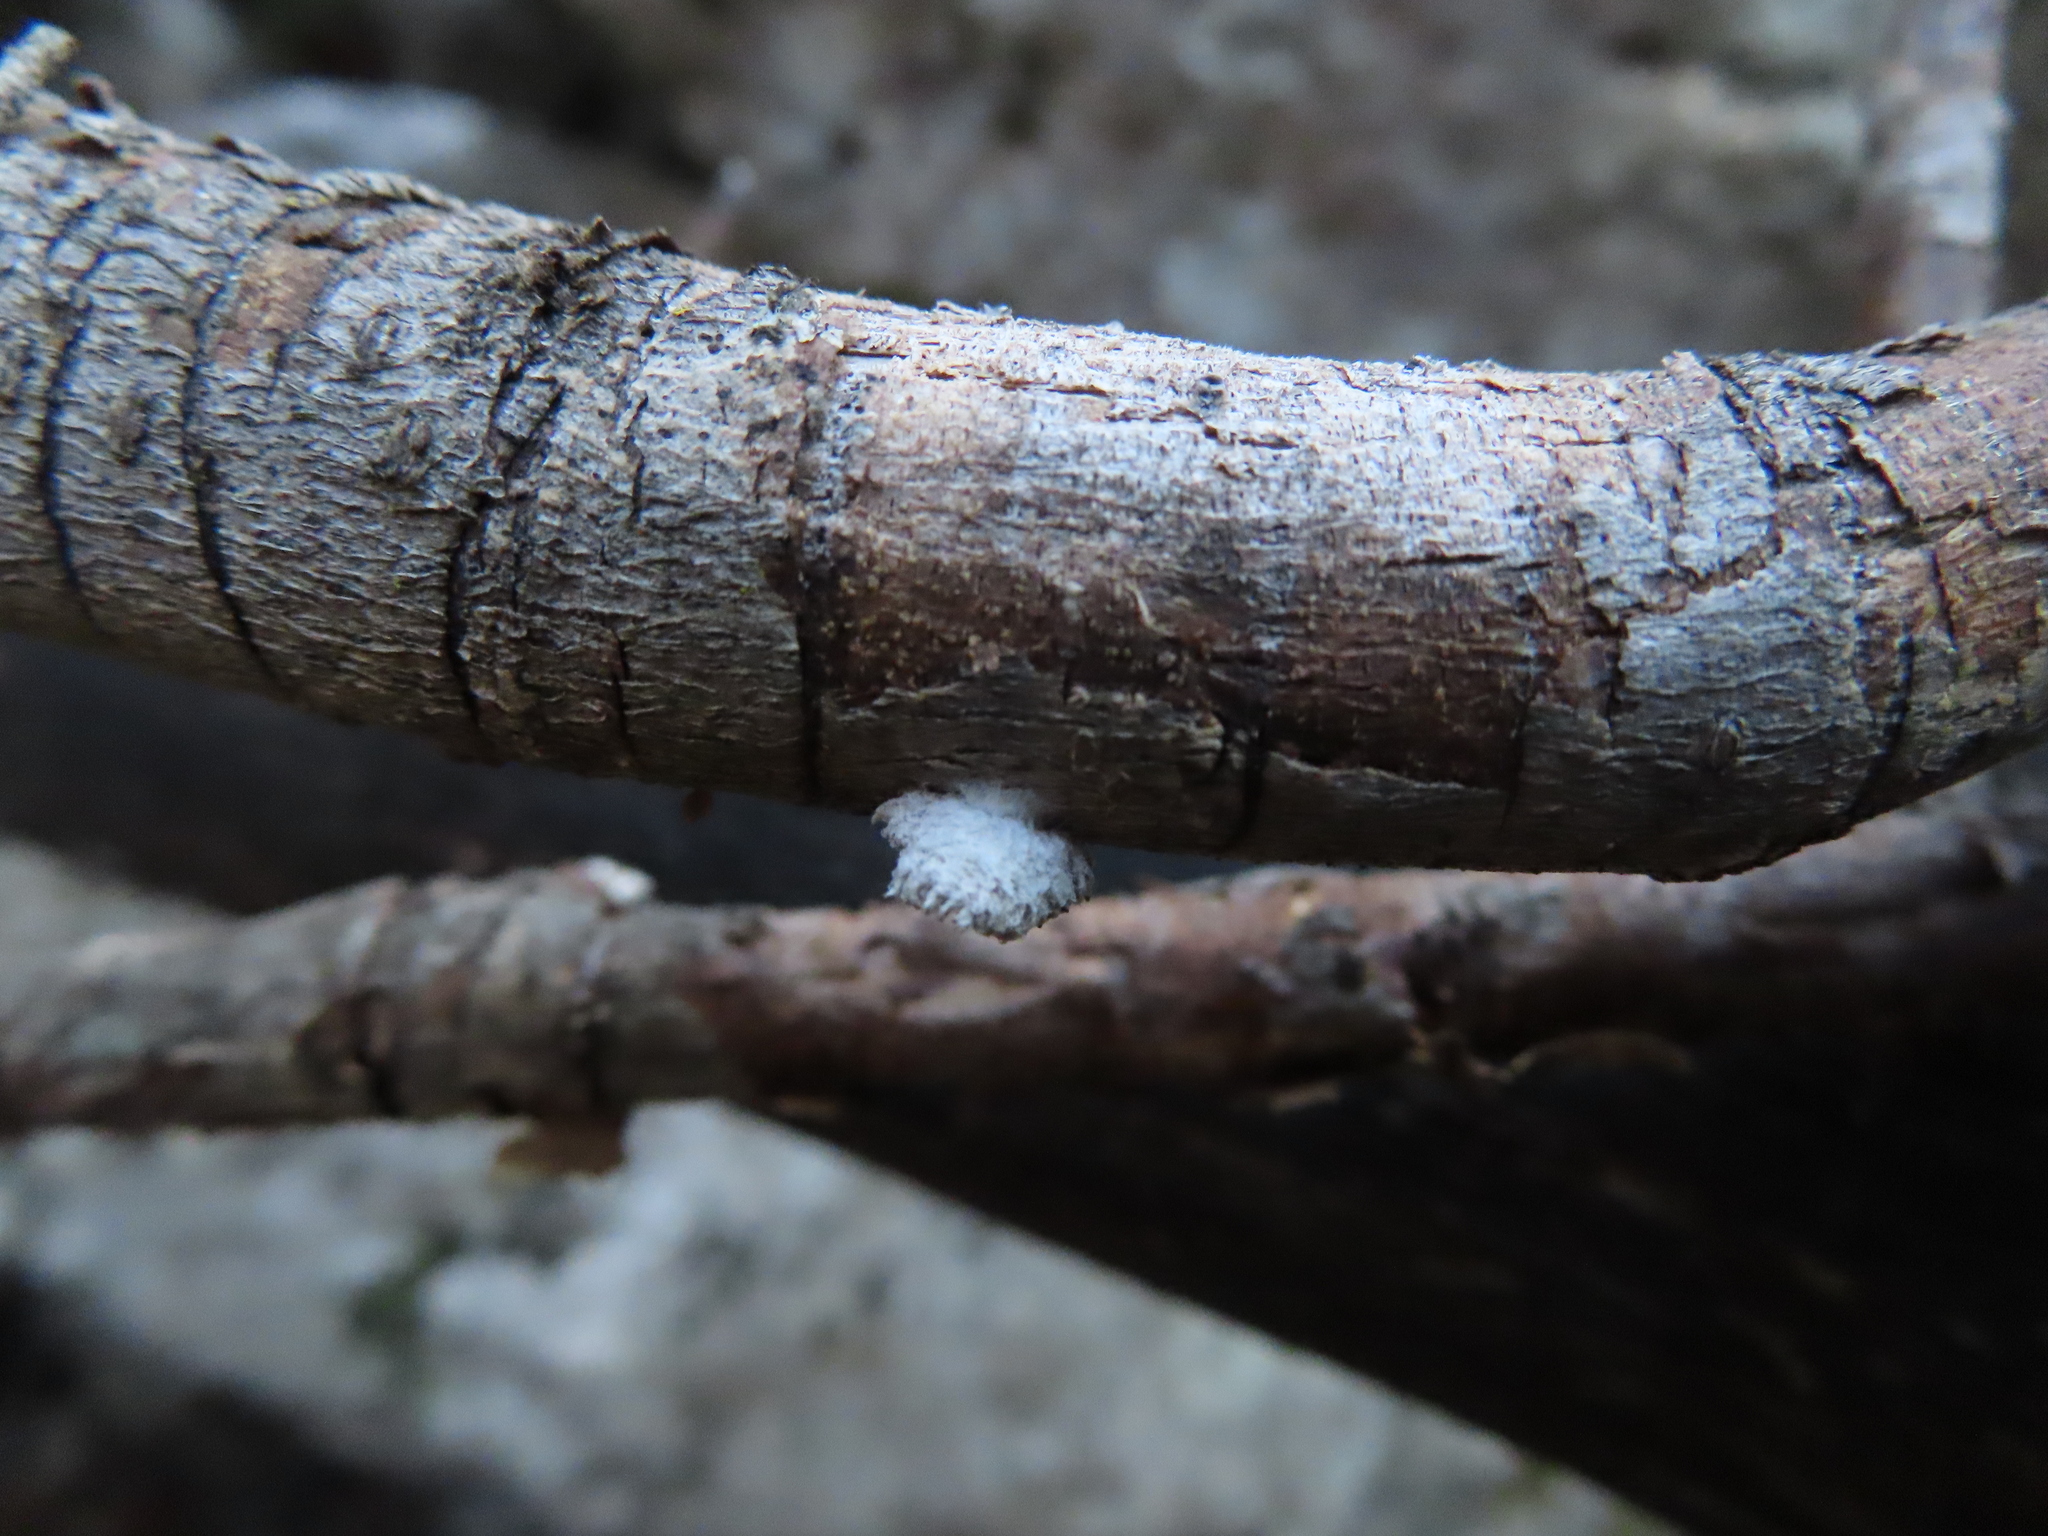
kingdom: Fungi
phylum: Basidiomycota
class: Agaricomycetes
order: Agaricales
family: Schizophyllaceae
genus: Schizophyllum
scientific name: Schizophyllum commune
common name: Common porecrust
